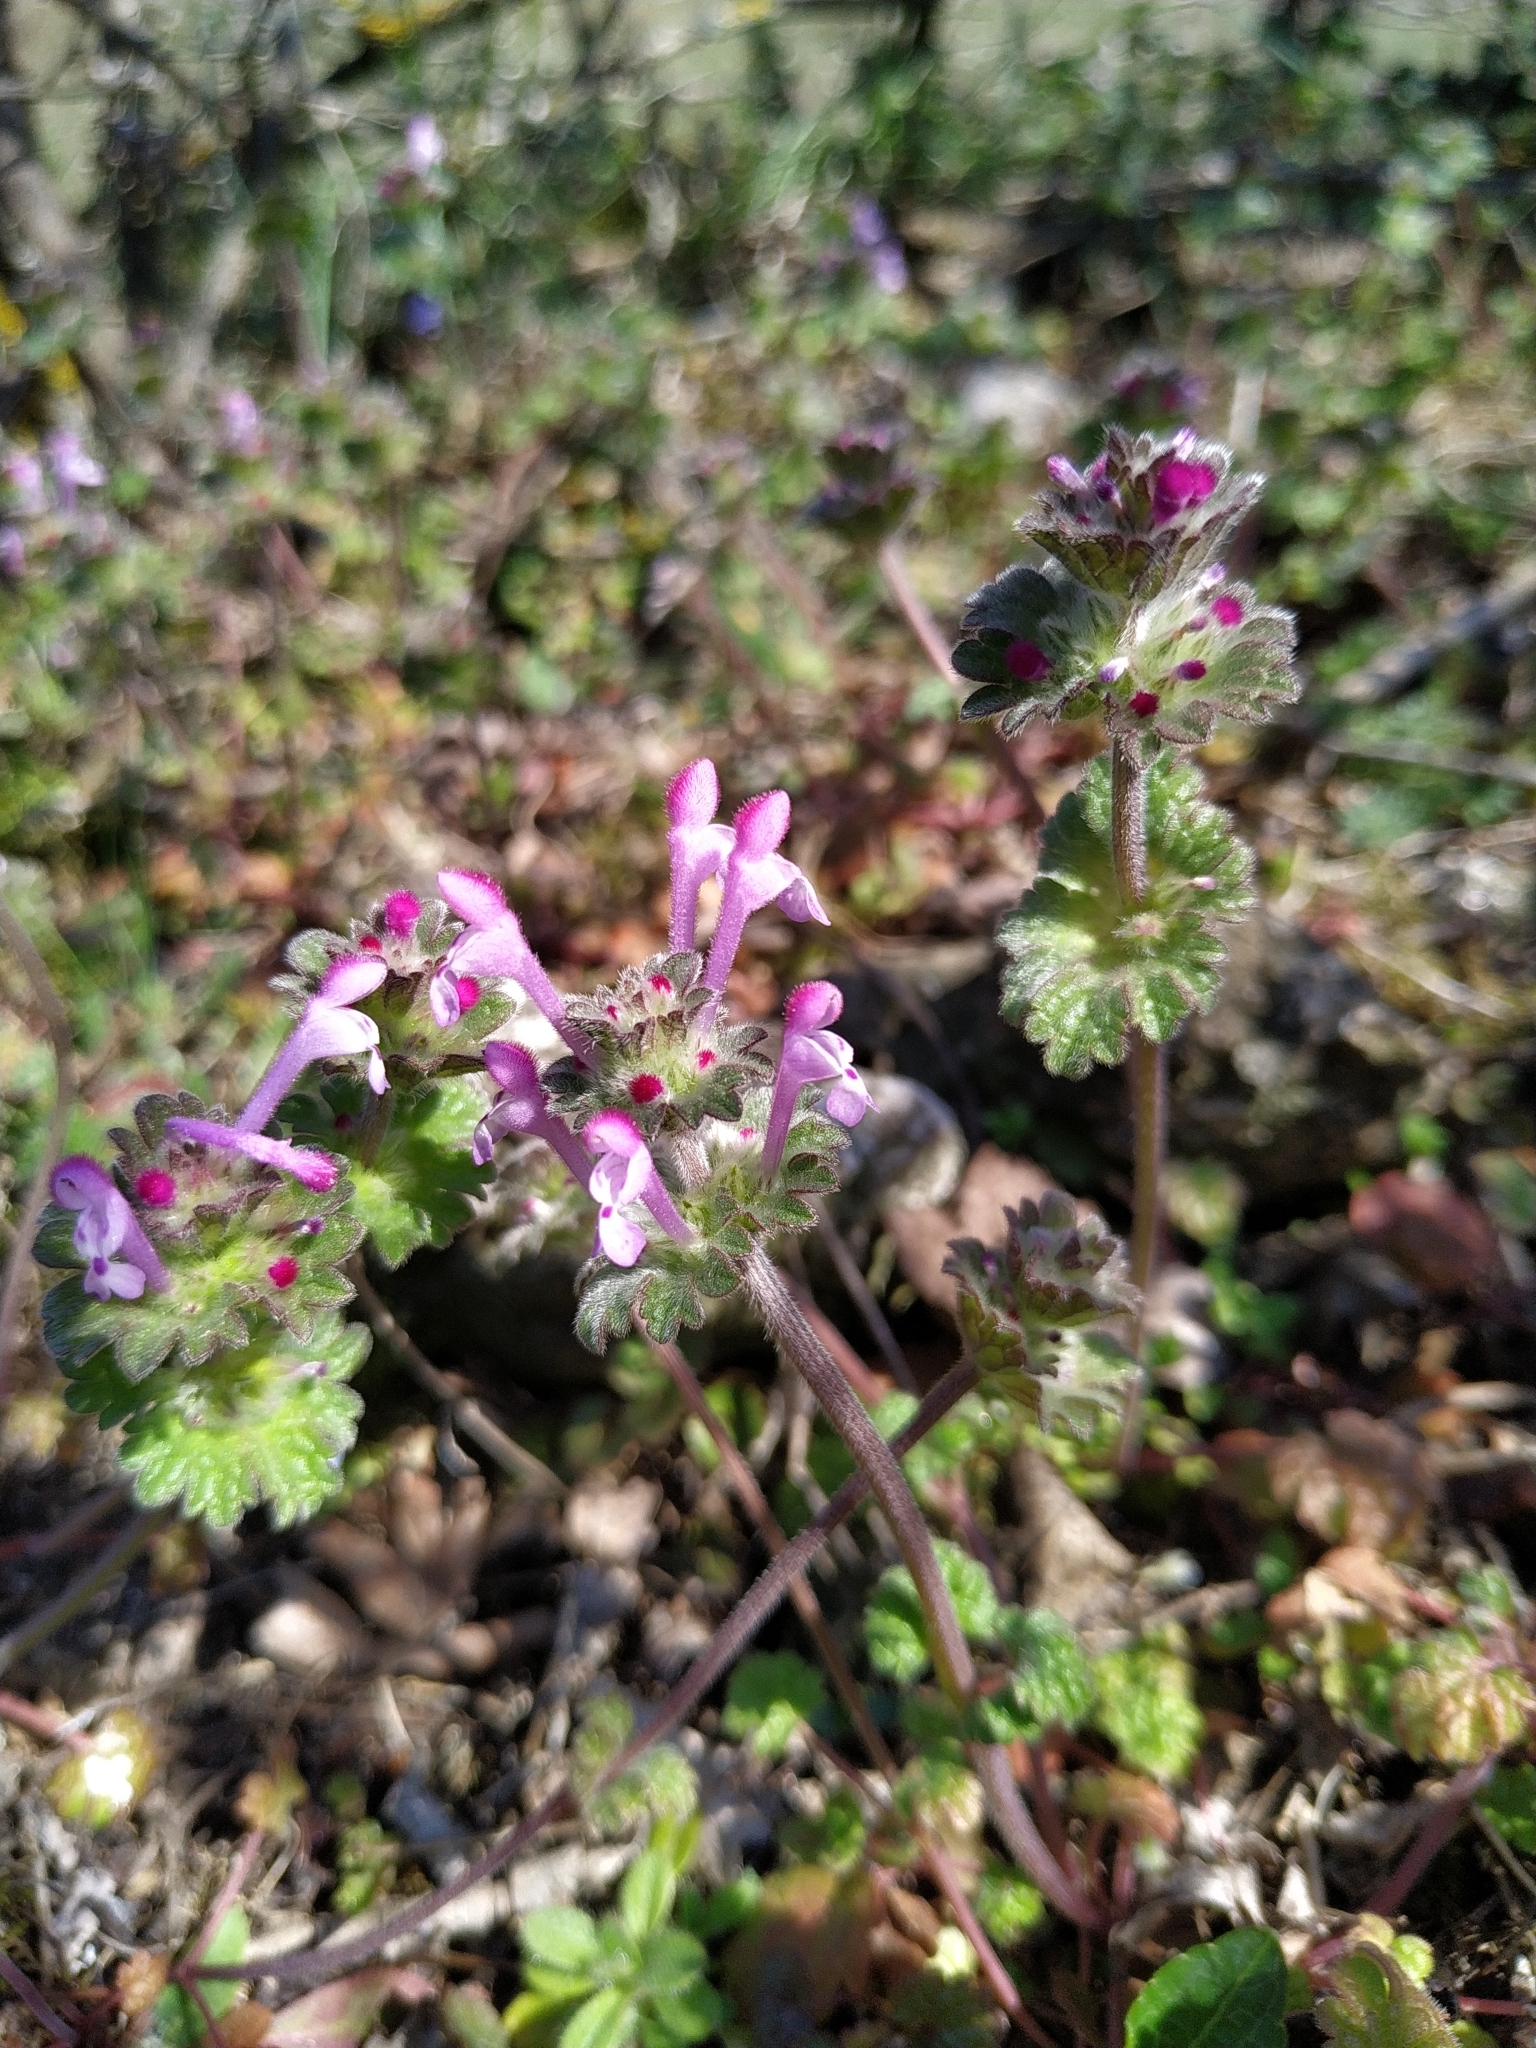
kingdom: Plantae
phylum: Tracheophyta
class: Magnoliopsida
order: Lamiales
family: Lamiaceae
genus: Lamium
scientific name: Lamium amplexicaule
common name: Henbit dead-nettle
